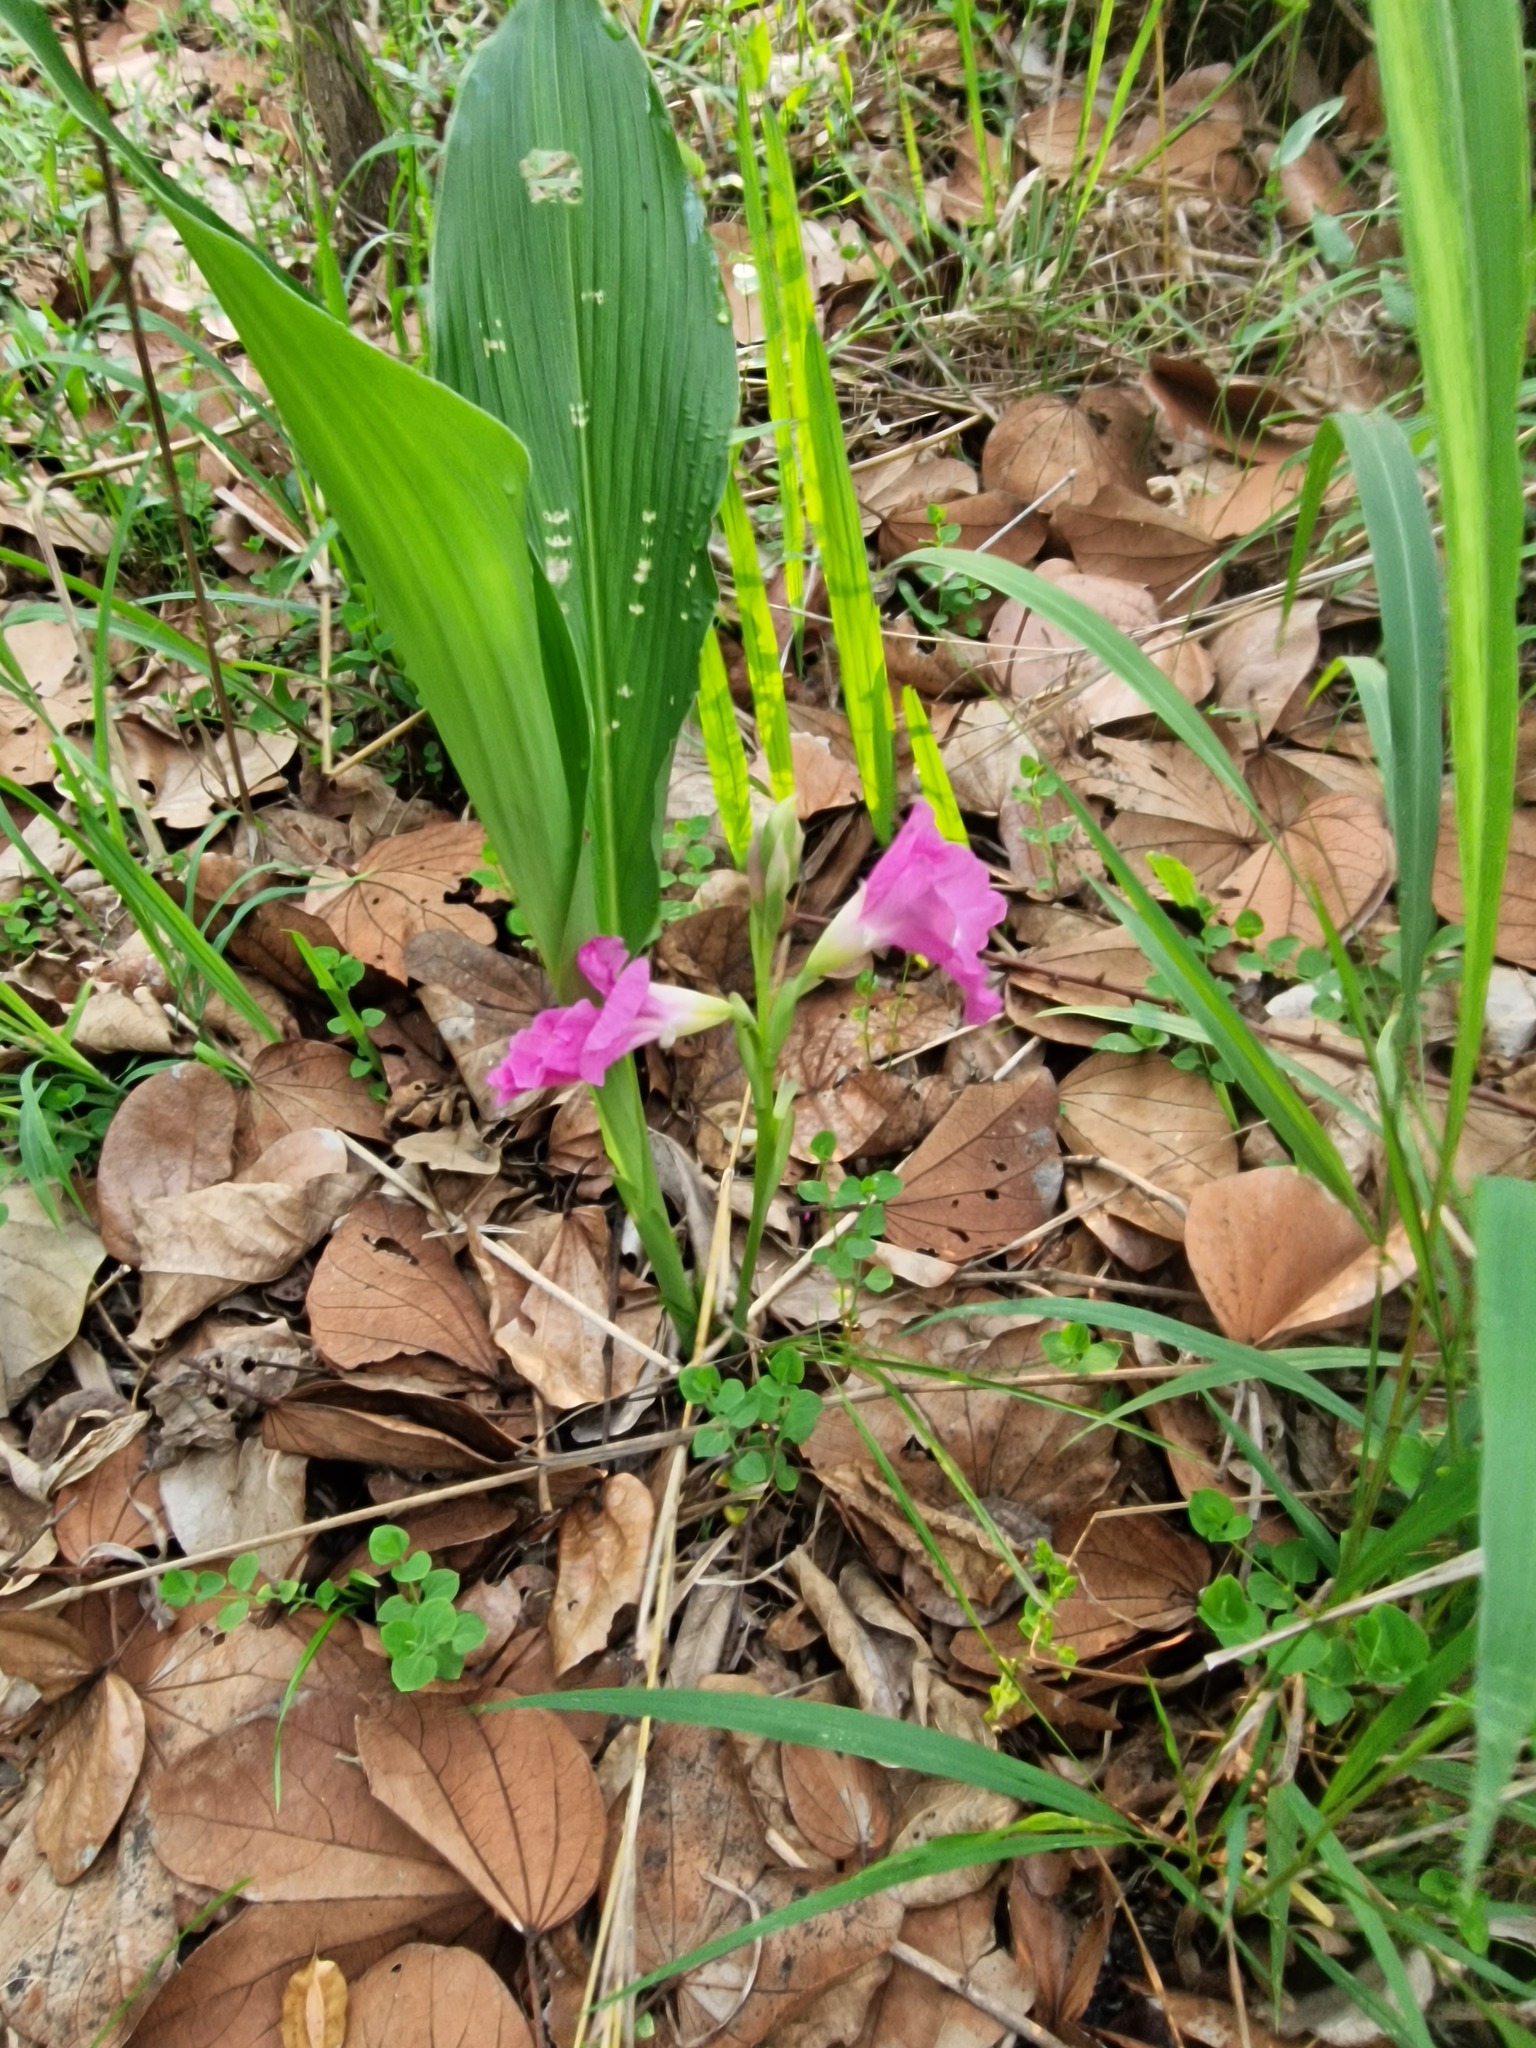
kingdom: Plantae
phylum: Tracheophyta
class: Liliopsida
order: Zingiberales
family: Zingiberaceae
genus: Siphonochilus
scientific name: Siphonochilus kirkii
